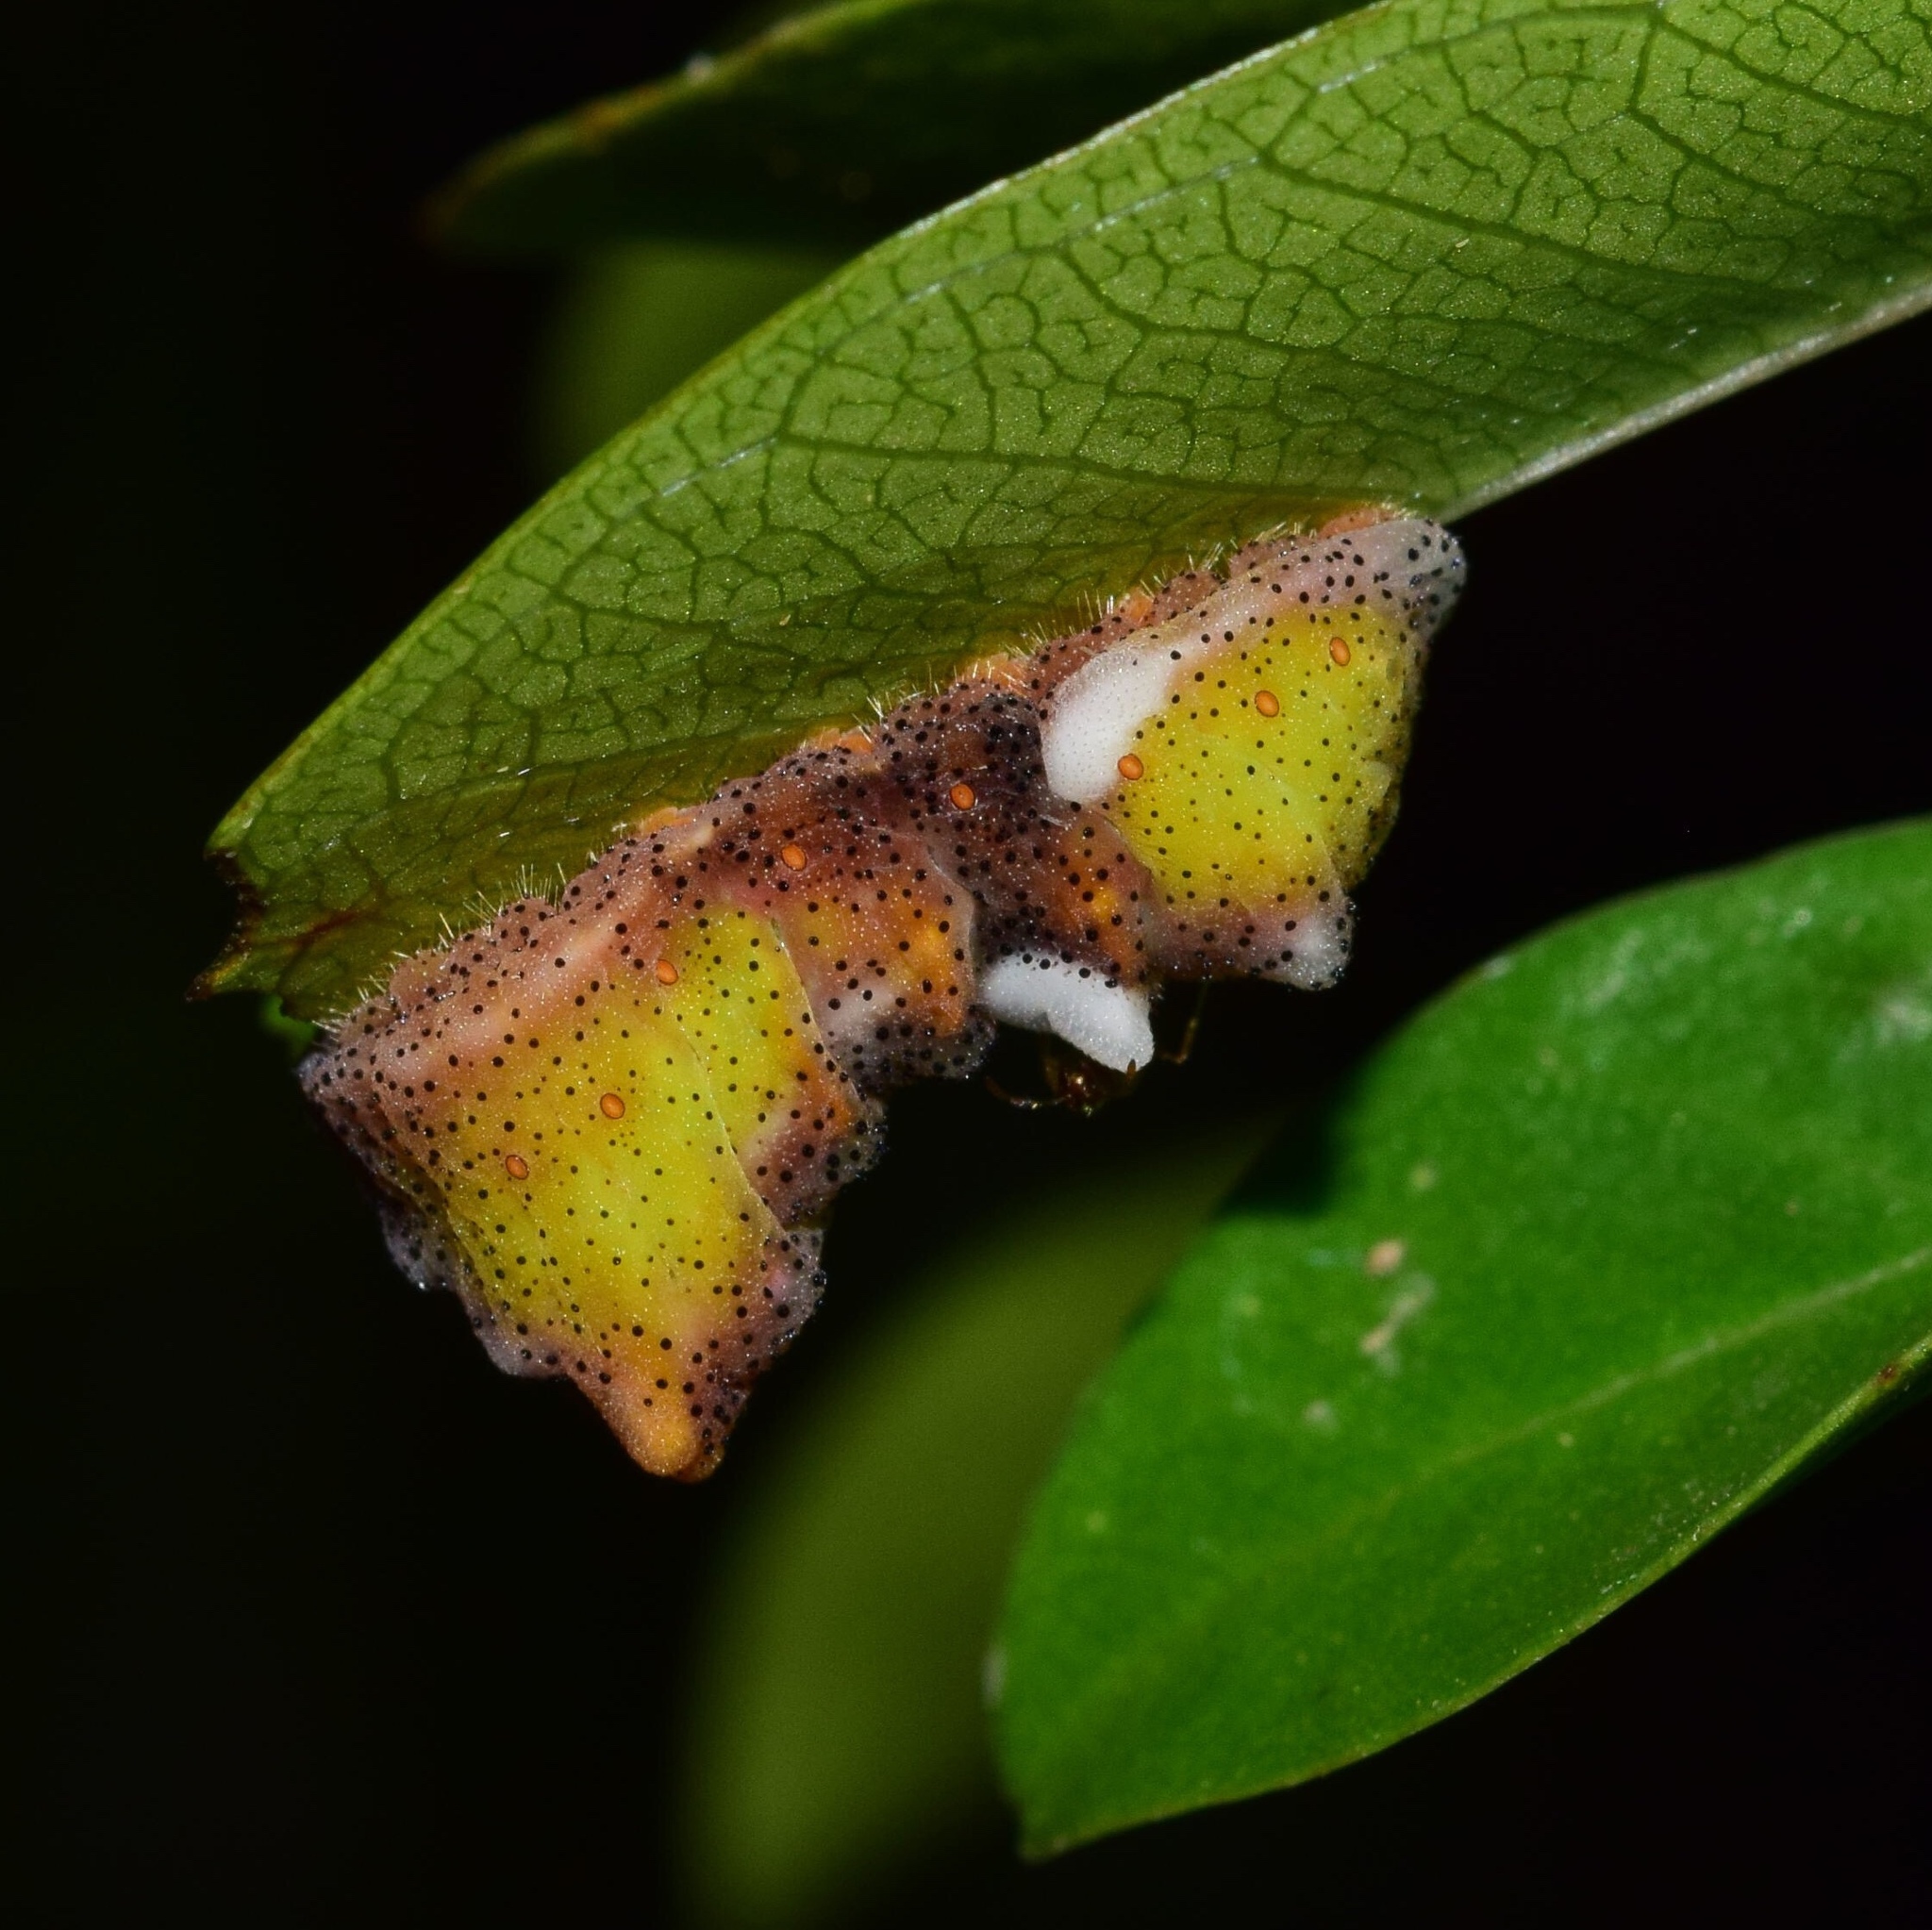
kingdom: Animalia
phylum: Arthropoda
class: Insecta
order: Lepidoptera
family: Lycaenidae
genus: Myrina
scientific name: Myrina silenus
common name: Amber fig-tree blue
